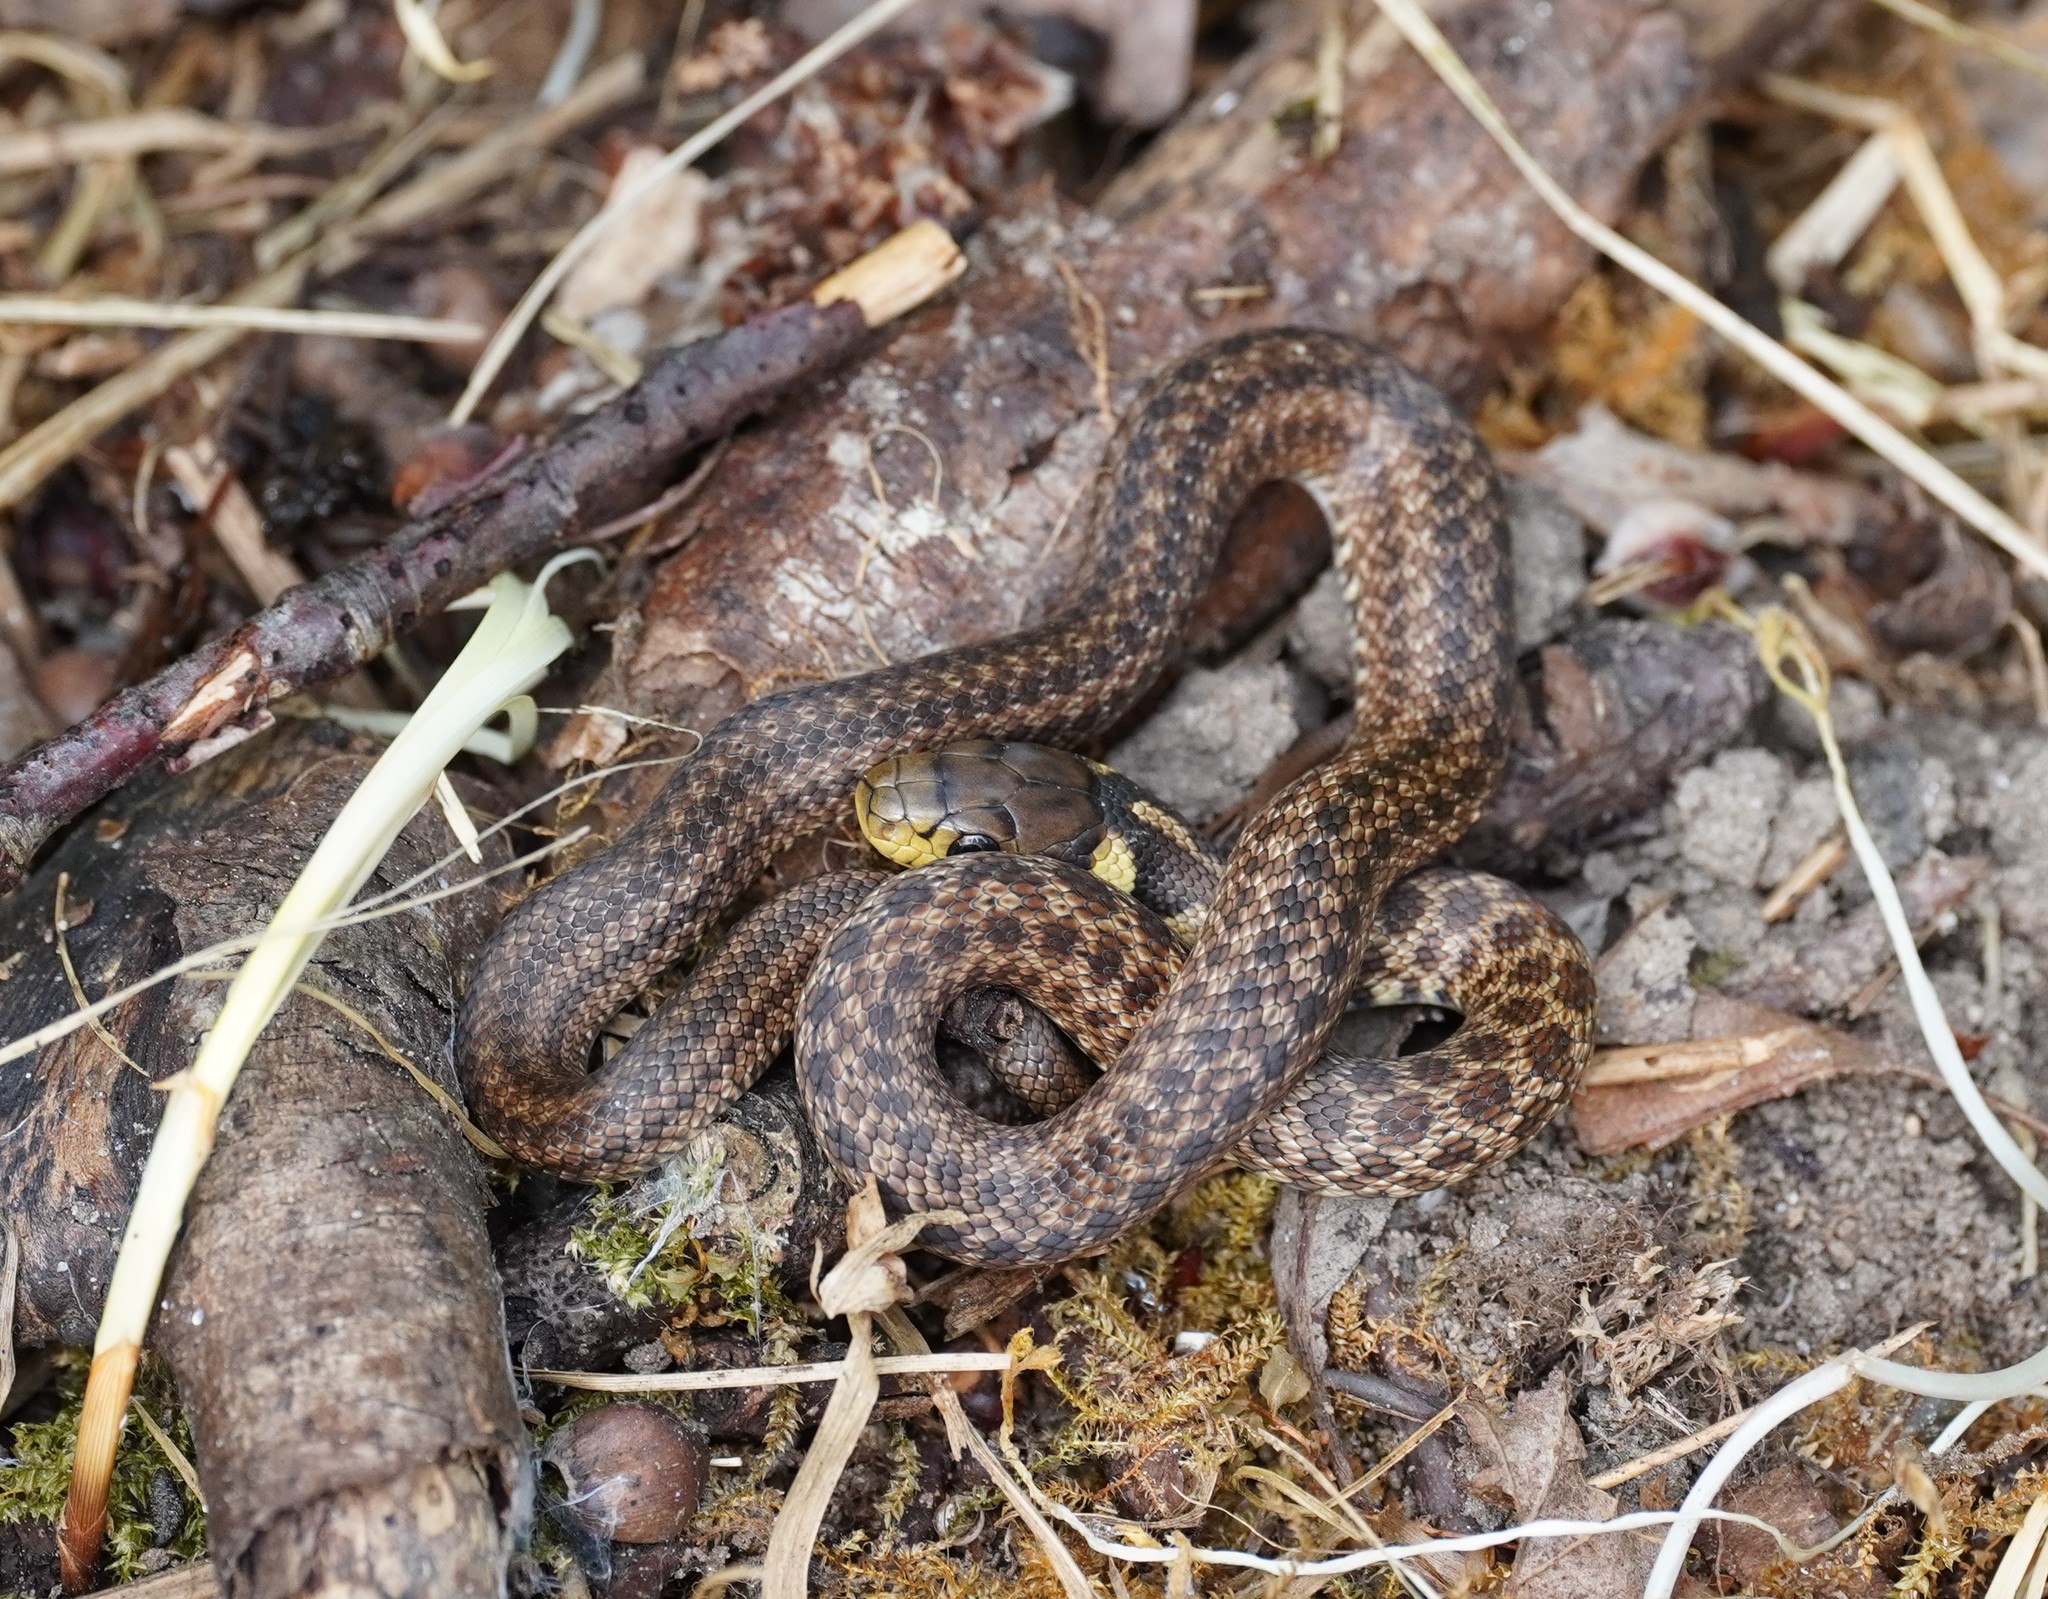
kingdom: Animalia
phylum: Chordata
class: Squamata
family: Colubridae
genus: Zamenis
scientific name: Zamenis longissimus
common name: Aesculapean snake
